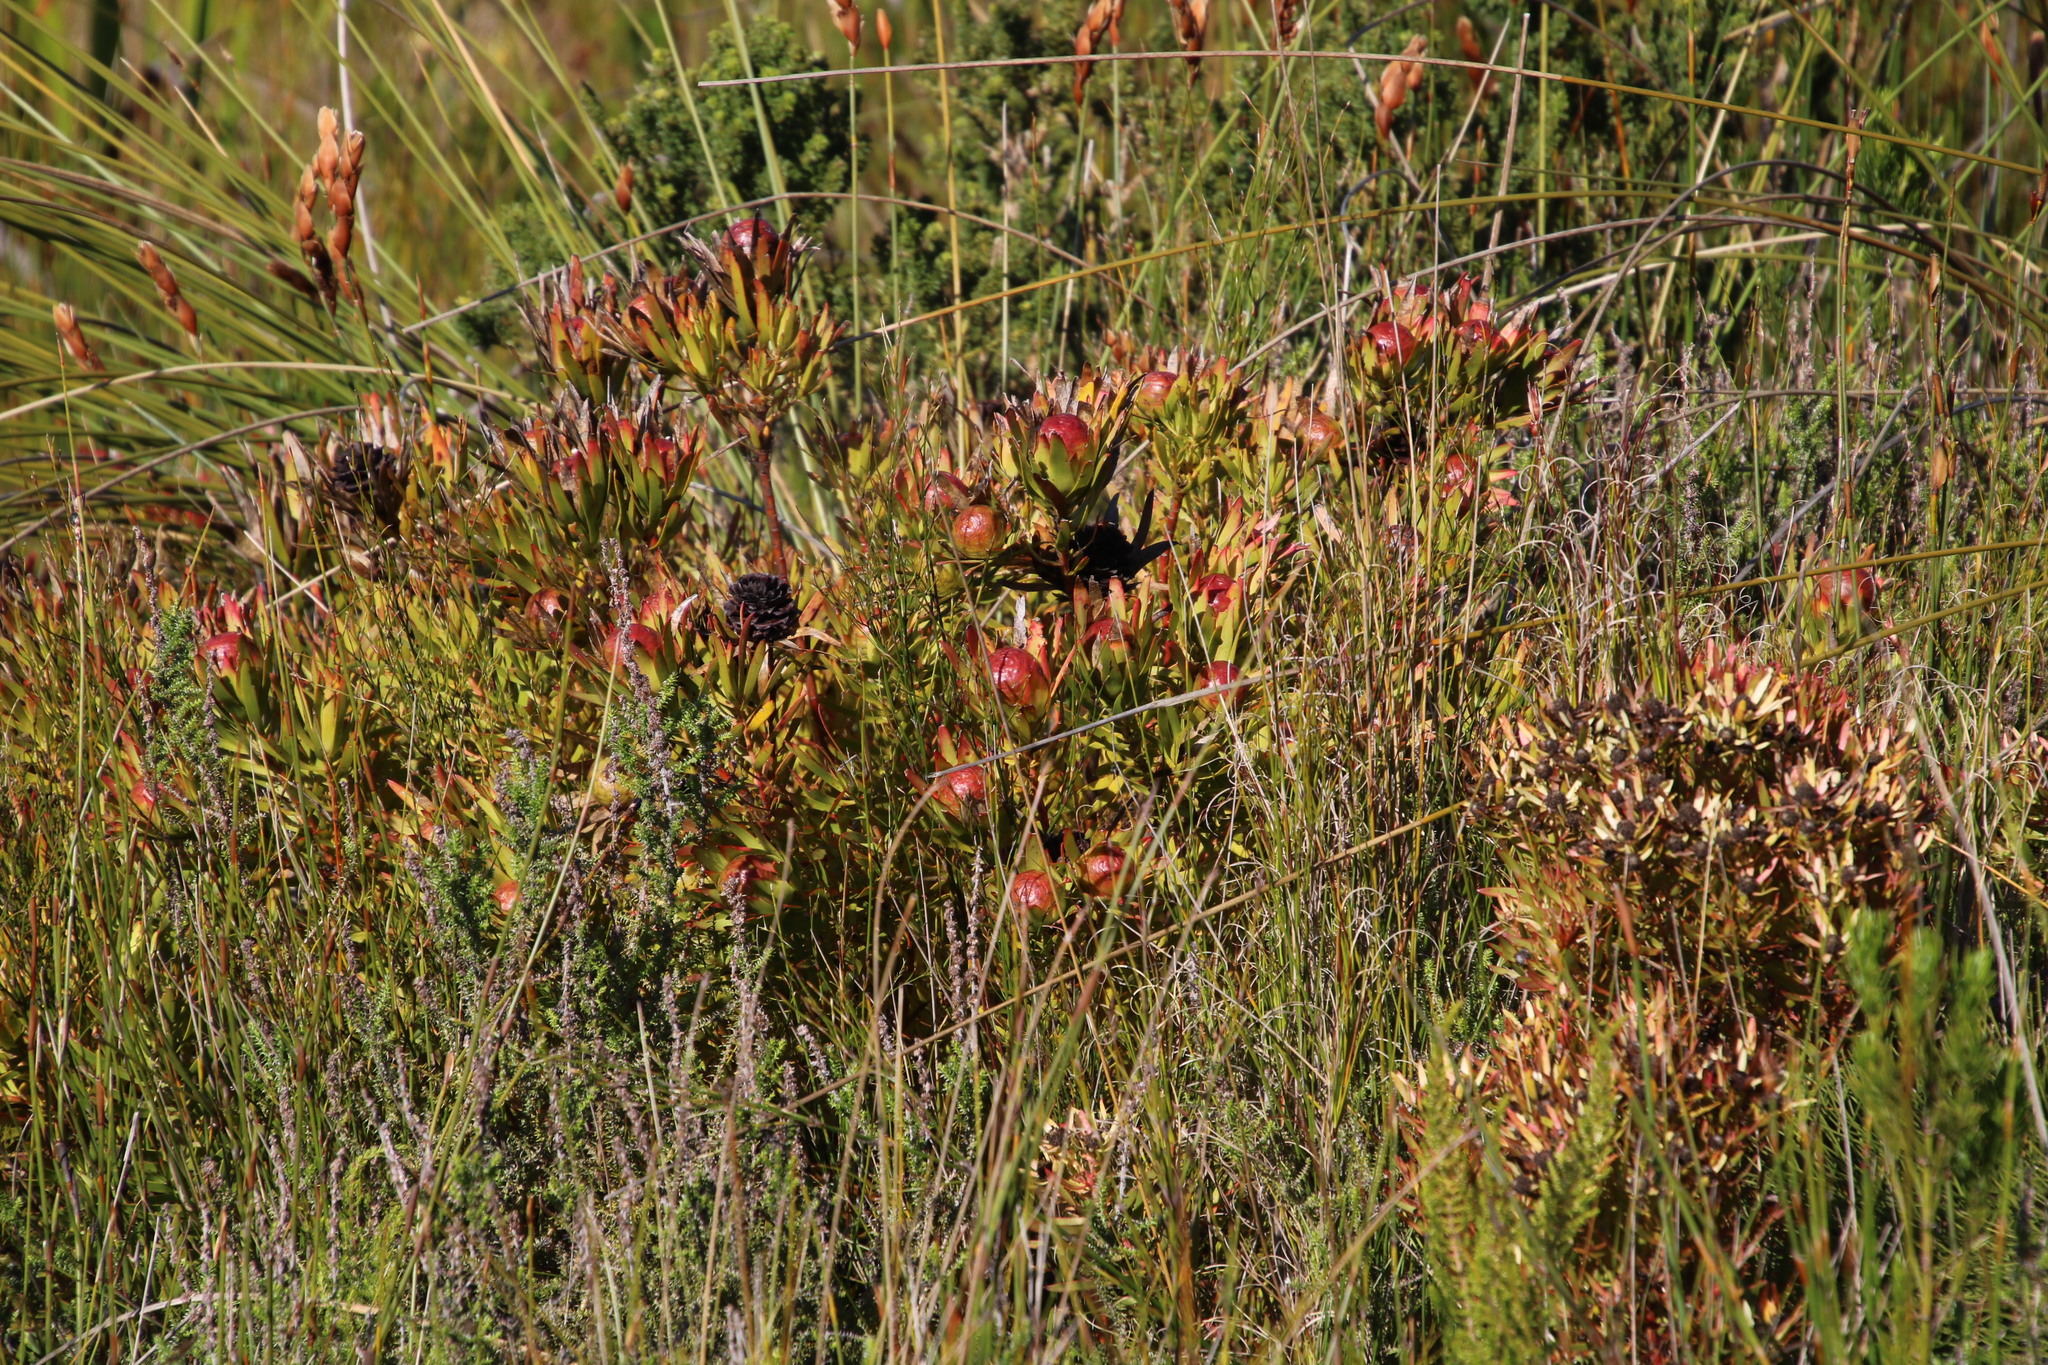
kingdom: Plantae
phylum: Tracheophyta
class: Magnoliopsida
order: Proteales
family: Proteaceae
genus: Leucadendron
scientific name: Leucadendron spissifolium
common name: Spear-leaf conebush
